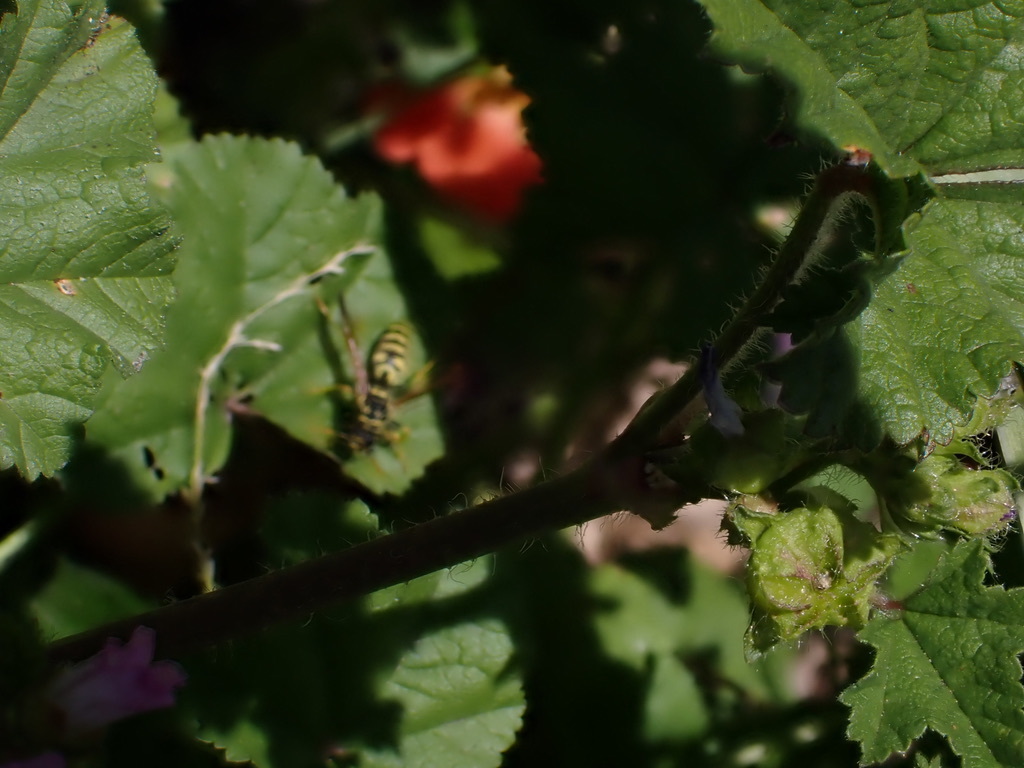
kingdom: Animalia
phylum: Arthropoda
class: Insecta
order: Hymenoptera
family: Eumenidae
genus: Polistes
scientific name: Polistes dominula
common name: Paper wasp
